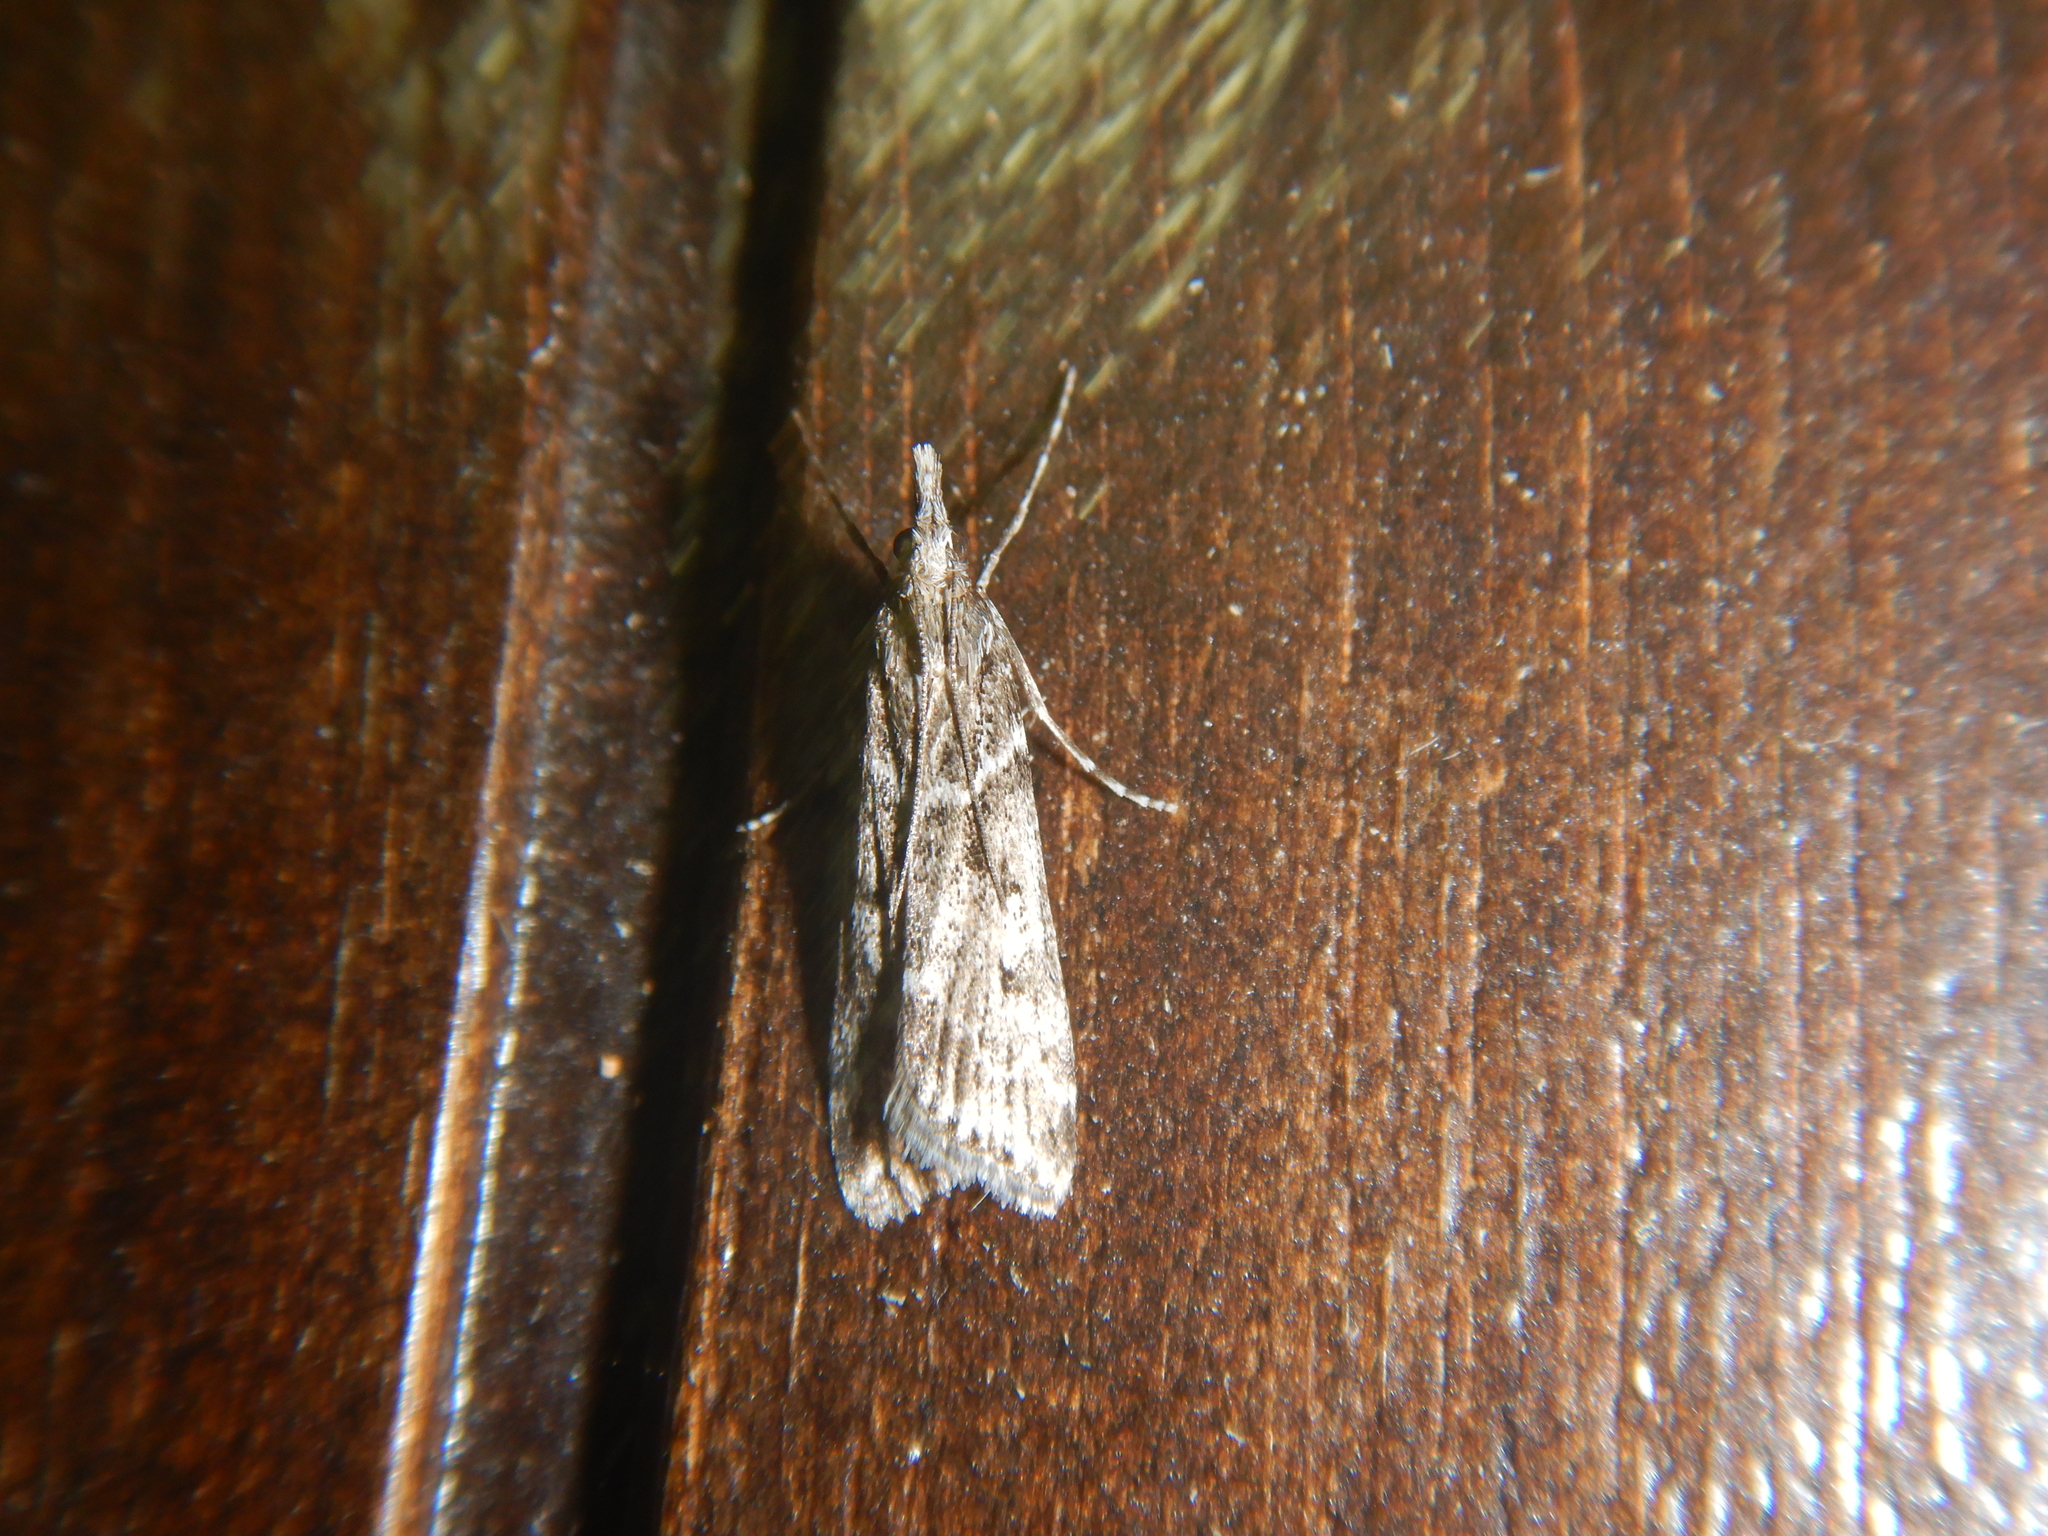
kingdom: Animalia
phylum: Arthropoda
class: Insecta
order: Lepidoptera
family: Crambidae
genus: Eudonia
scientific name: Eudonia angustea
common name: Narrow-winged grey
